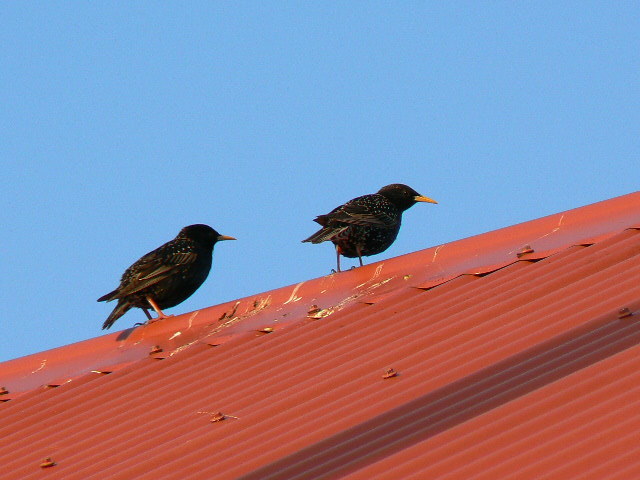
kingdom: Animalia
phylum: Chordata
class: Aves
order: Passeriformes
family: Sturnidae
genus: Sturnus
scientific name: Sturnus vulgaris
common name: Common starling
